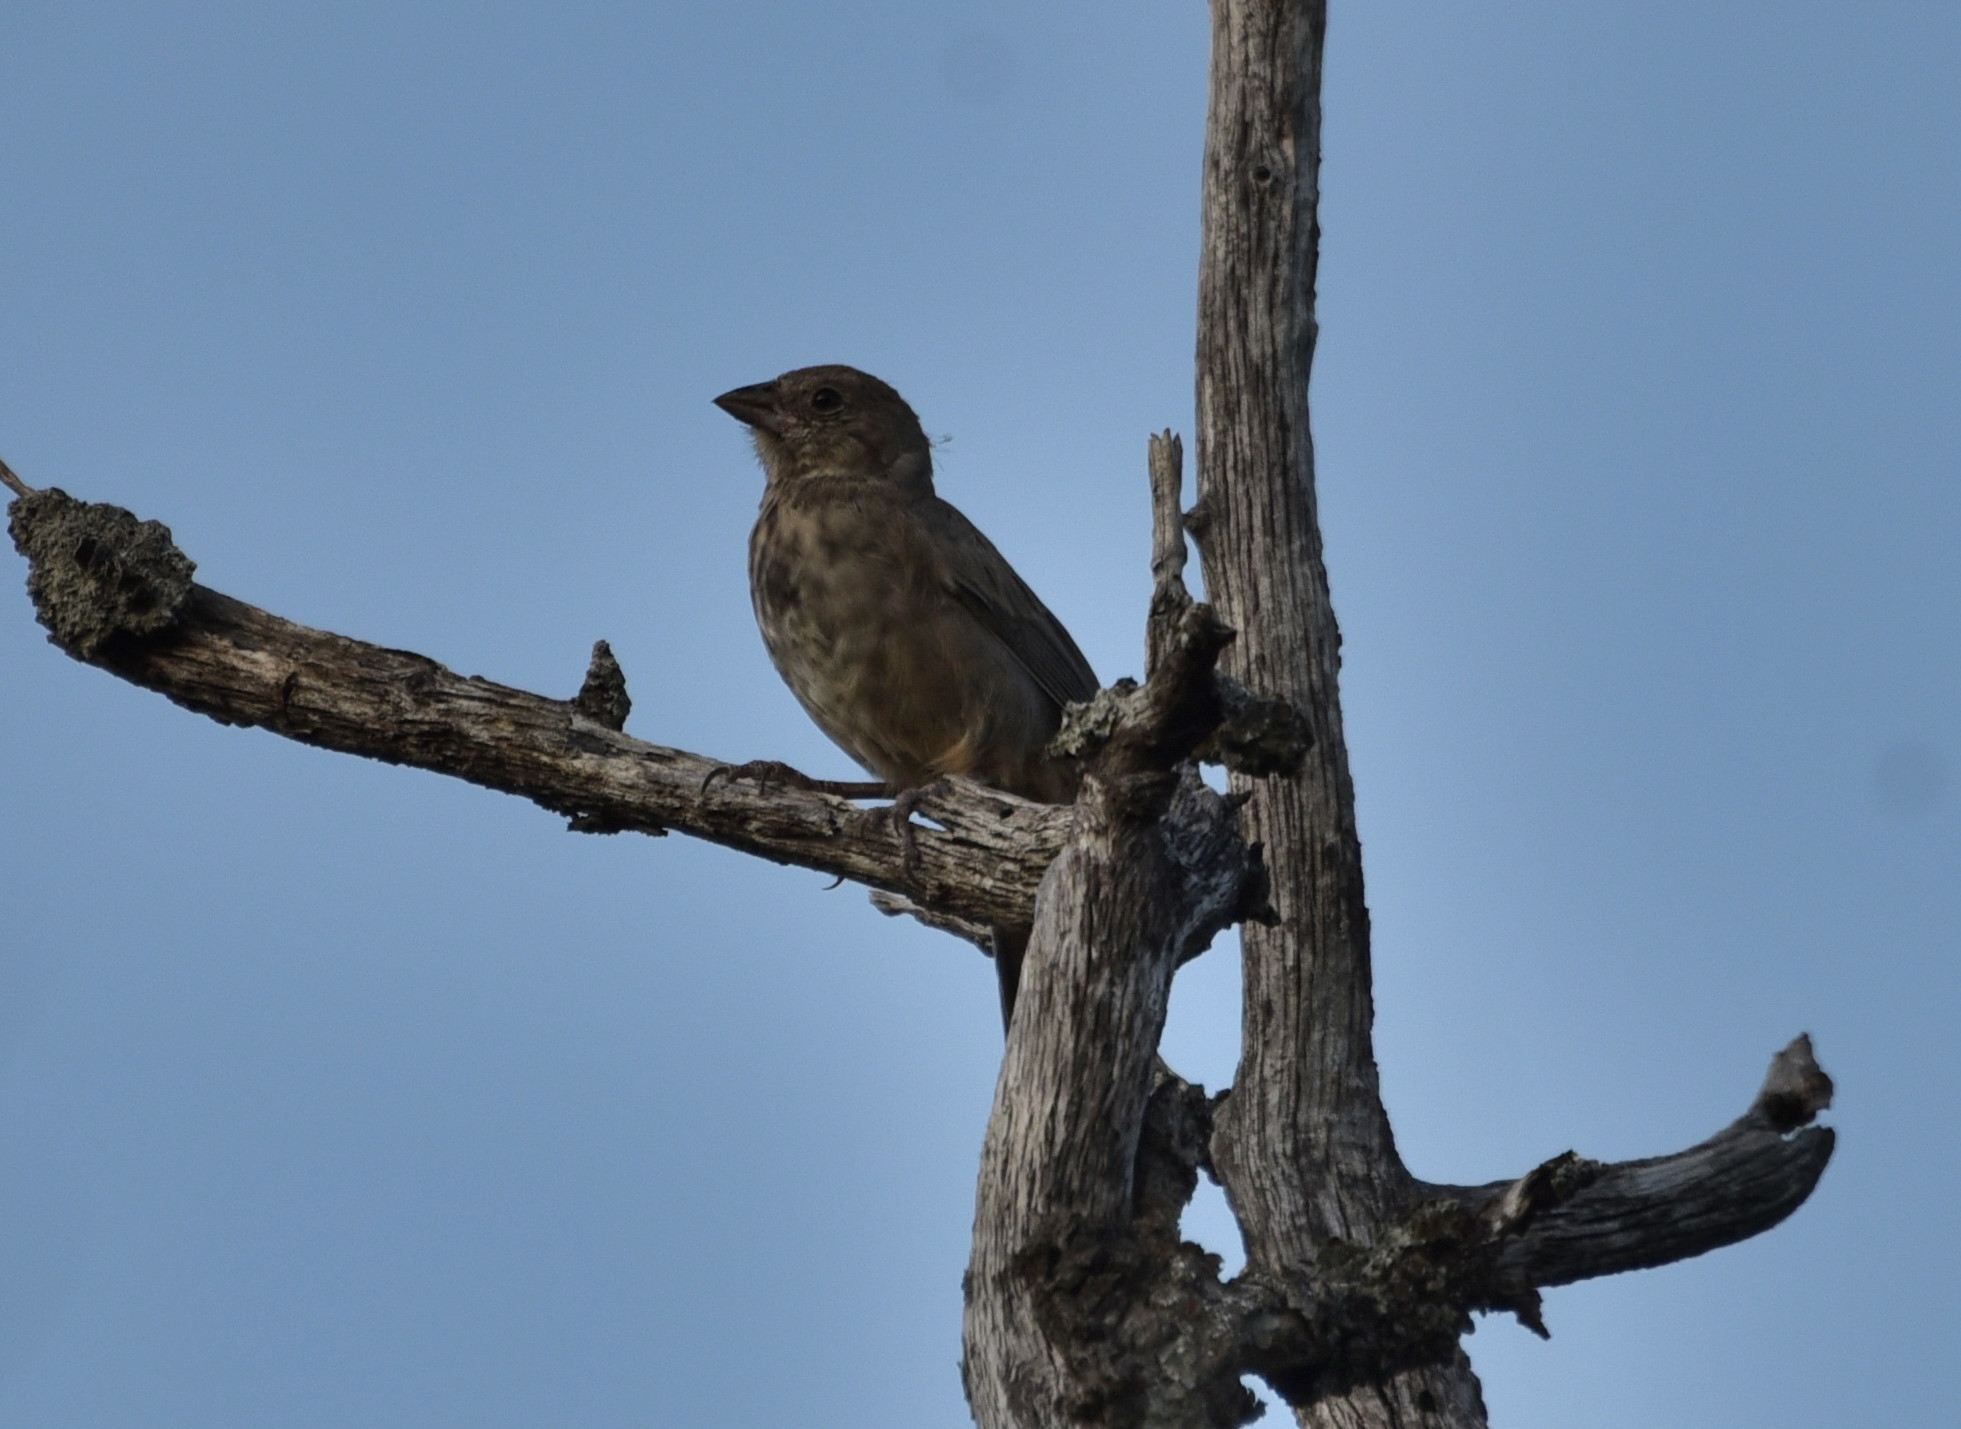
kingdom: Animalia
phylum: Chordata
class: Aves
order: Passeriformes
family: Passerellidae
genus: Melozone
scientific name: Melozone fusca
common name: Canyon towhee
